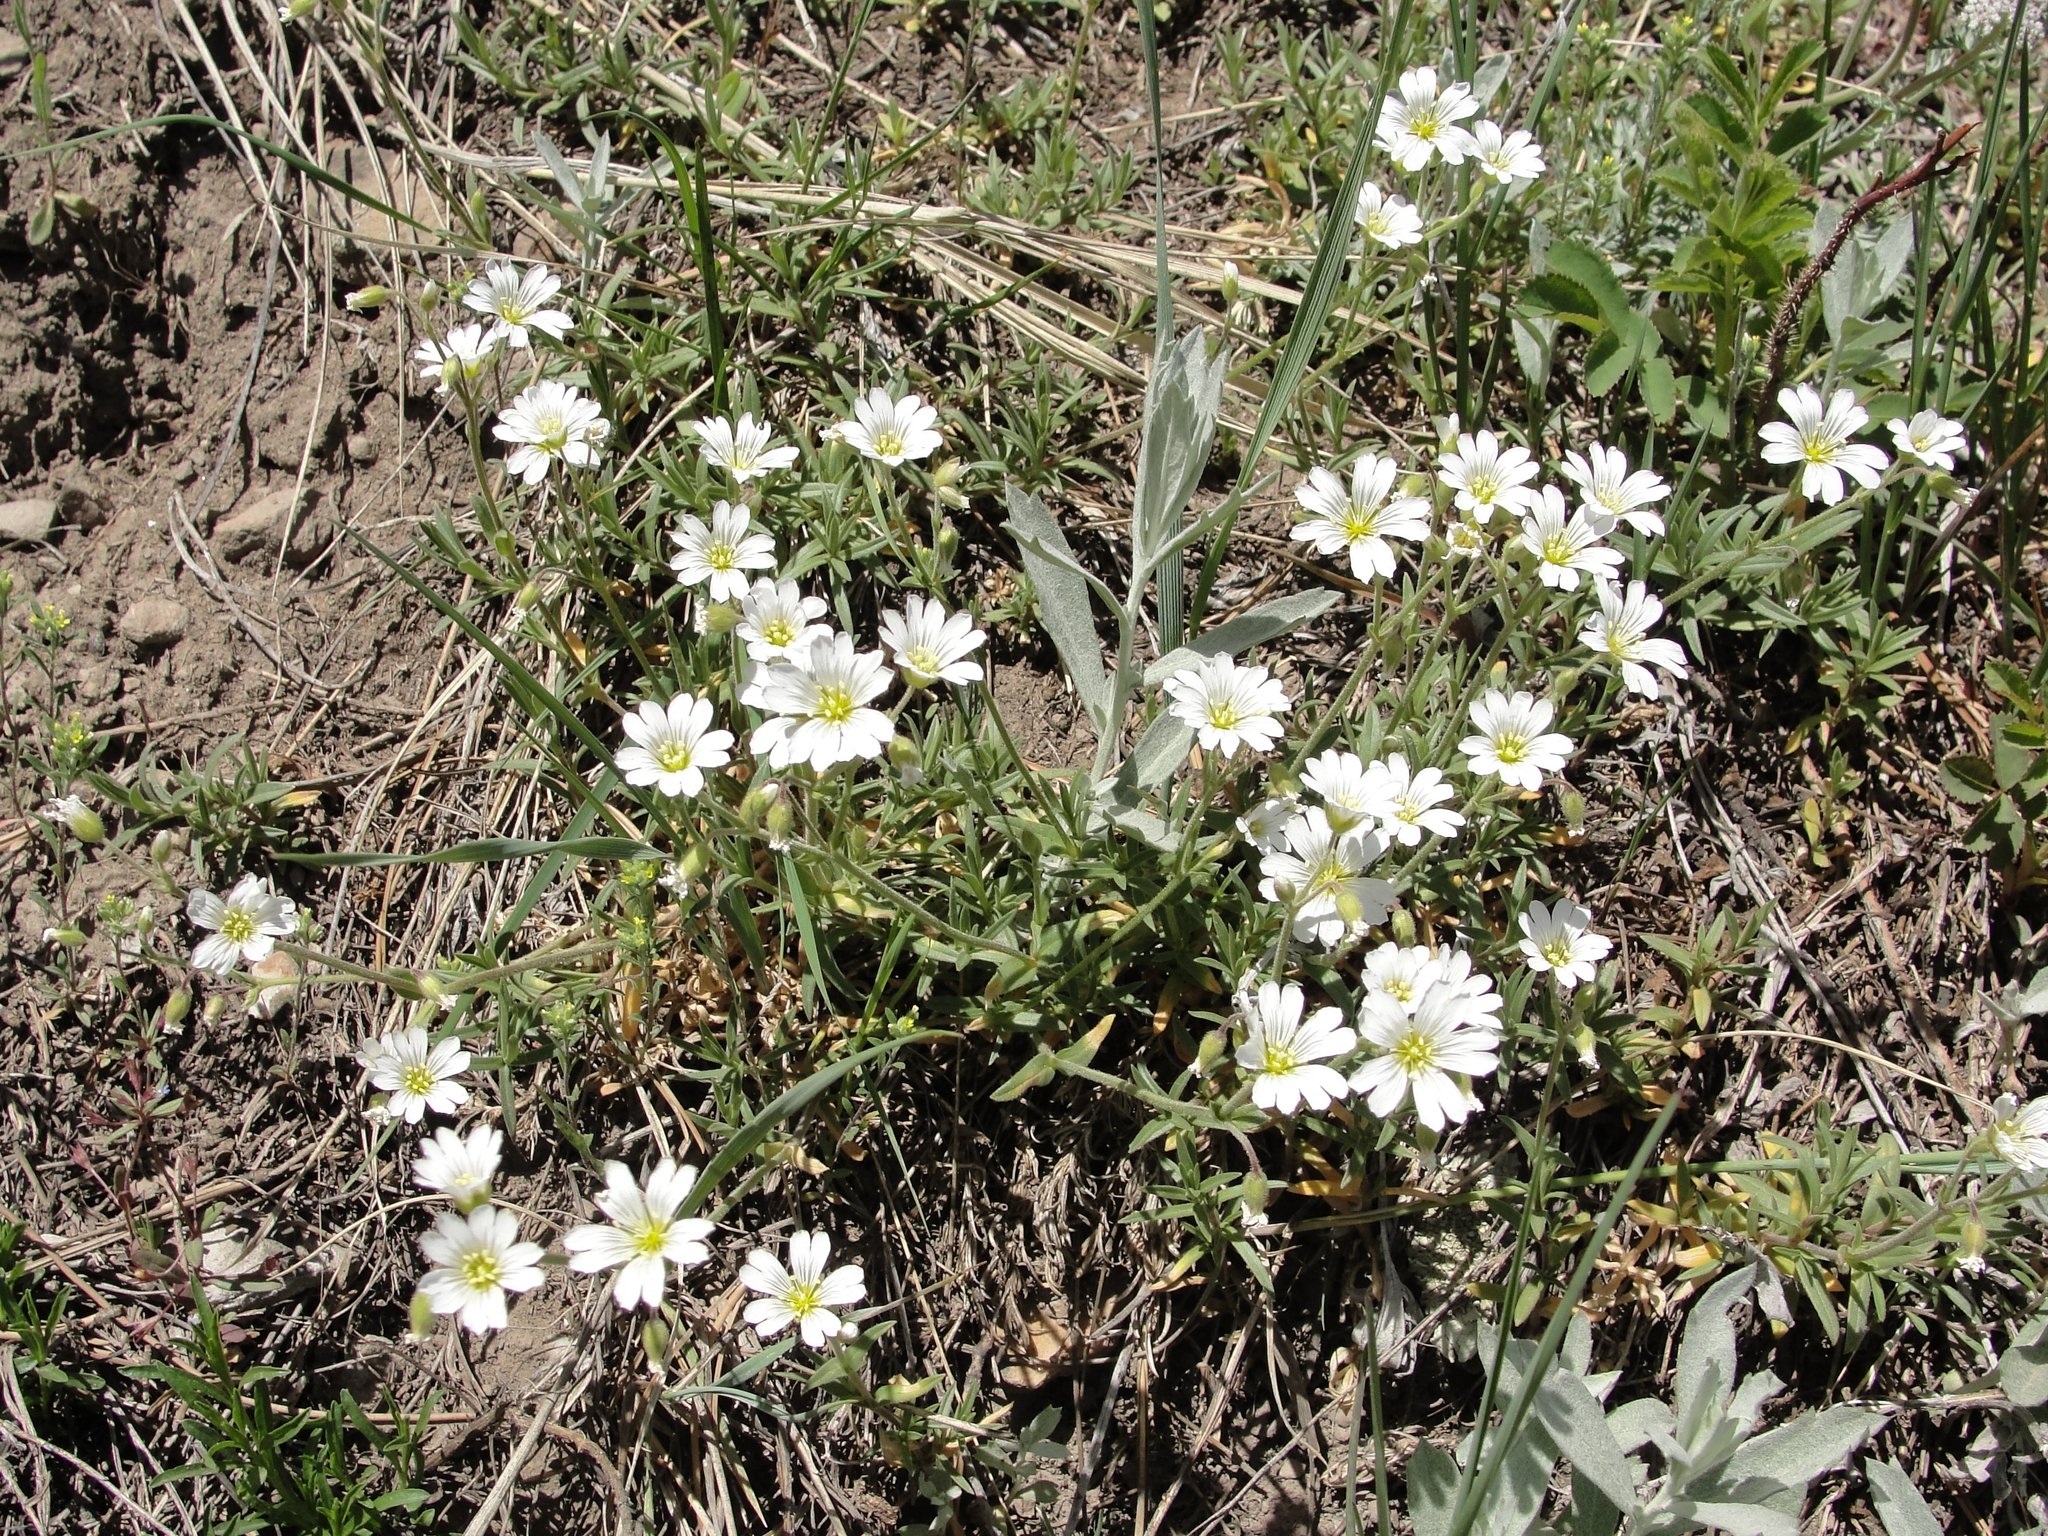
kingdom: Plantae
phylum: Tracheophyta
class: Magnoliopsida
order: Caryophyllales
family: Caryophyllaceae
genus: Cerastium
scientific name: Cerastium arvense
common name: Field mouse-ear
